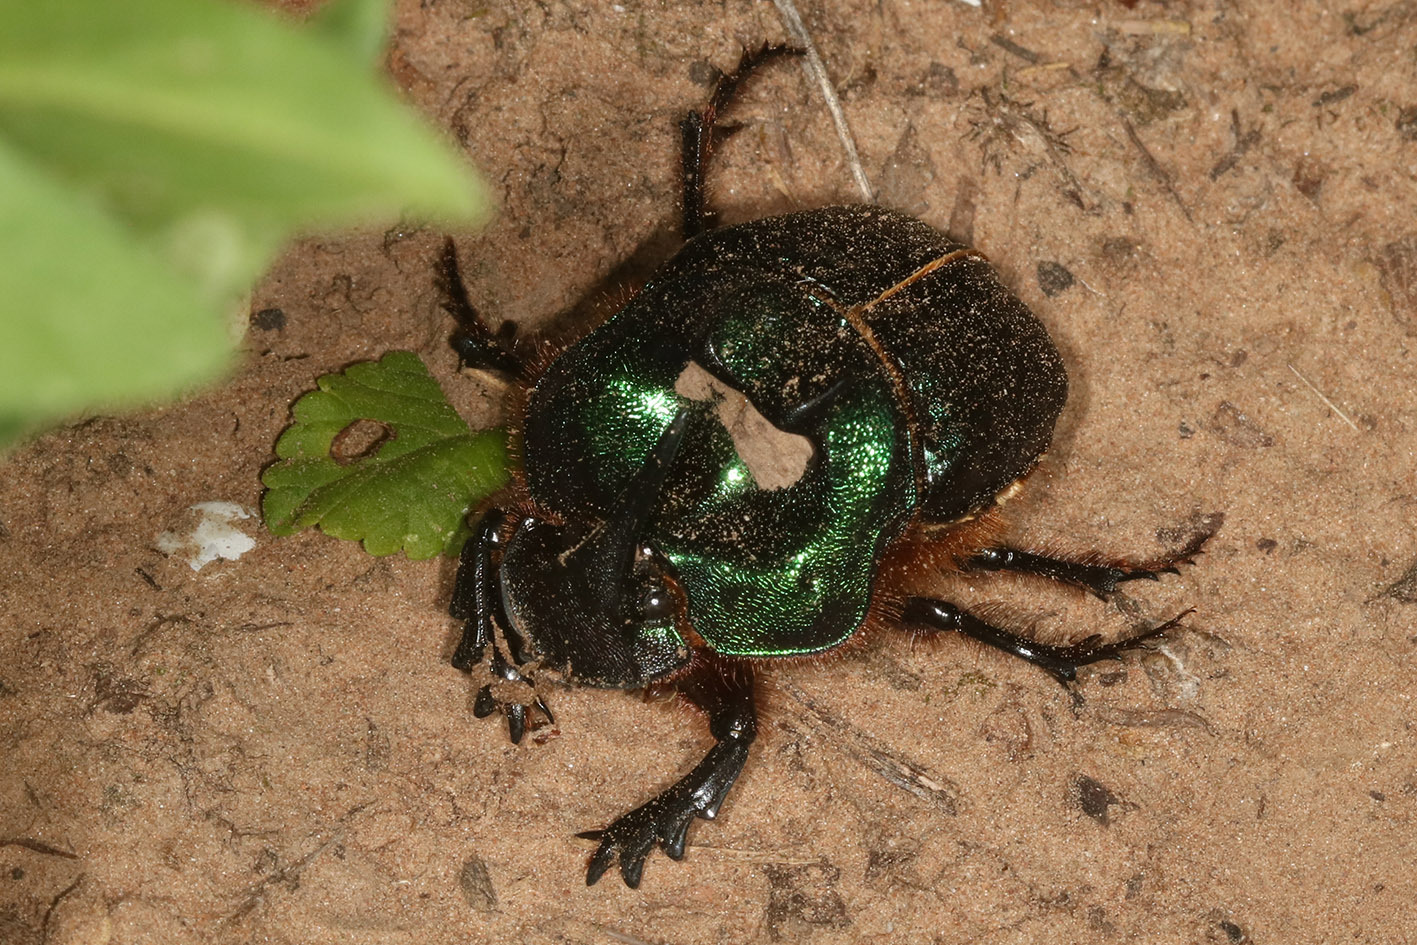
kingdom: Animalia
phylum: Arthropoda
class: Insecta
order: Coleoptera
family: Scarabaeidae
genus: Coprophanaeus
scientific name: Coprophanaeus bonariensis
